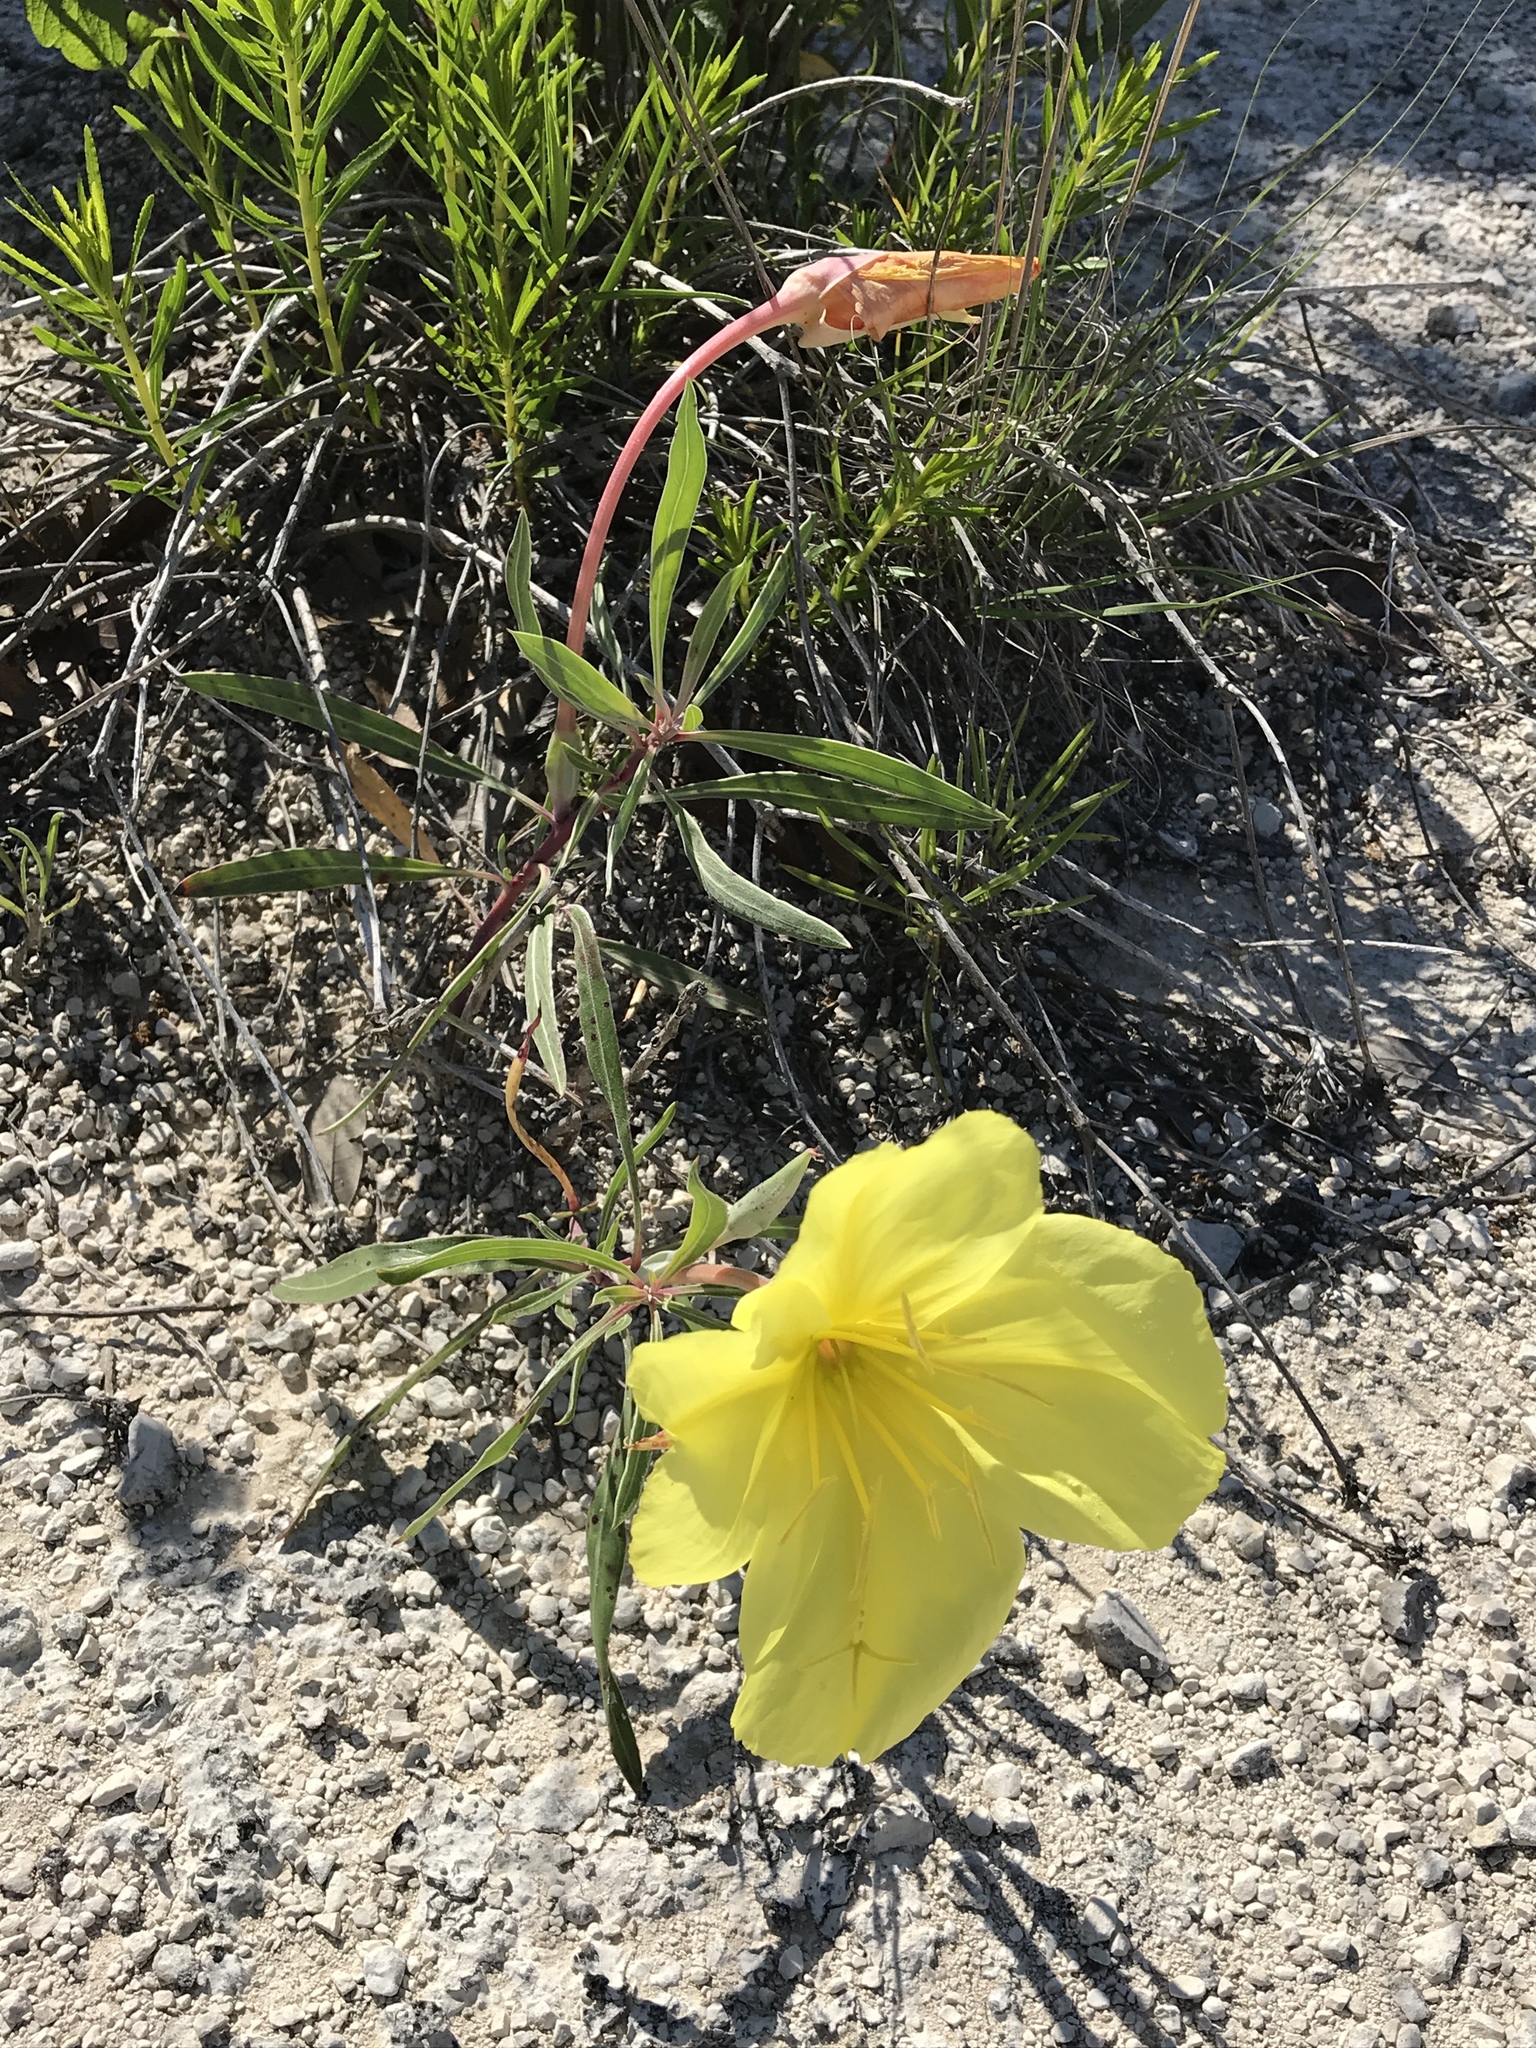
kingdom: Plantae
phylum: Tracheophyta
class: Magnoliopsida
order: Myrtales
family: Onagraceae
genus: Oenothera
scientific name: Oenothera macrocarpa
